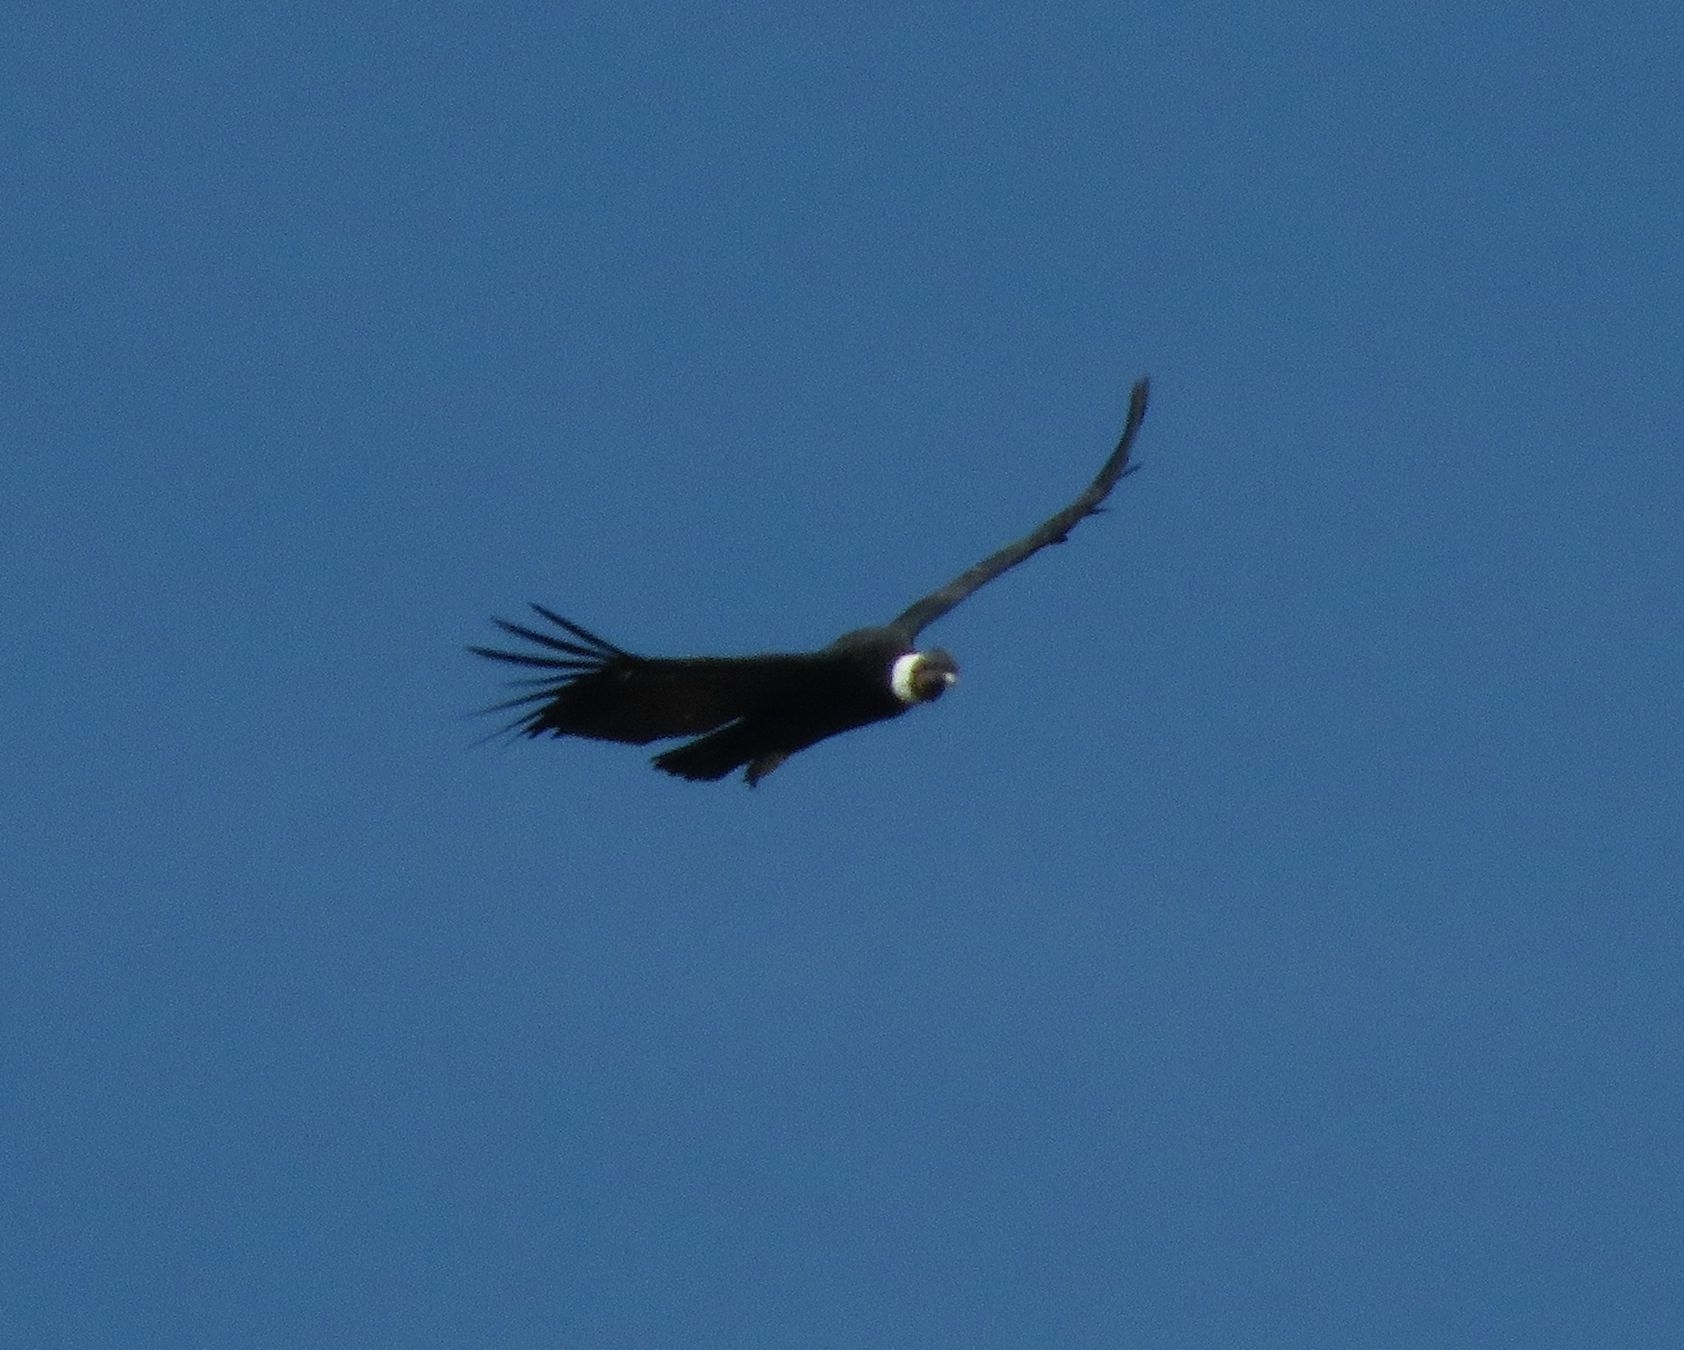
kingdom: Animalia
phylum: Chordata
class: Aves
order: Accipitriformes
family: Cathartidae
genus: Vultur
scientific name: Vultur gryphus
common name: Andean condor
